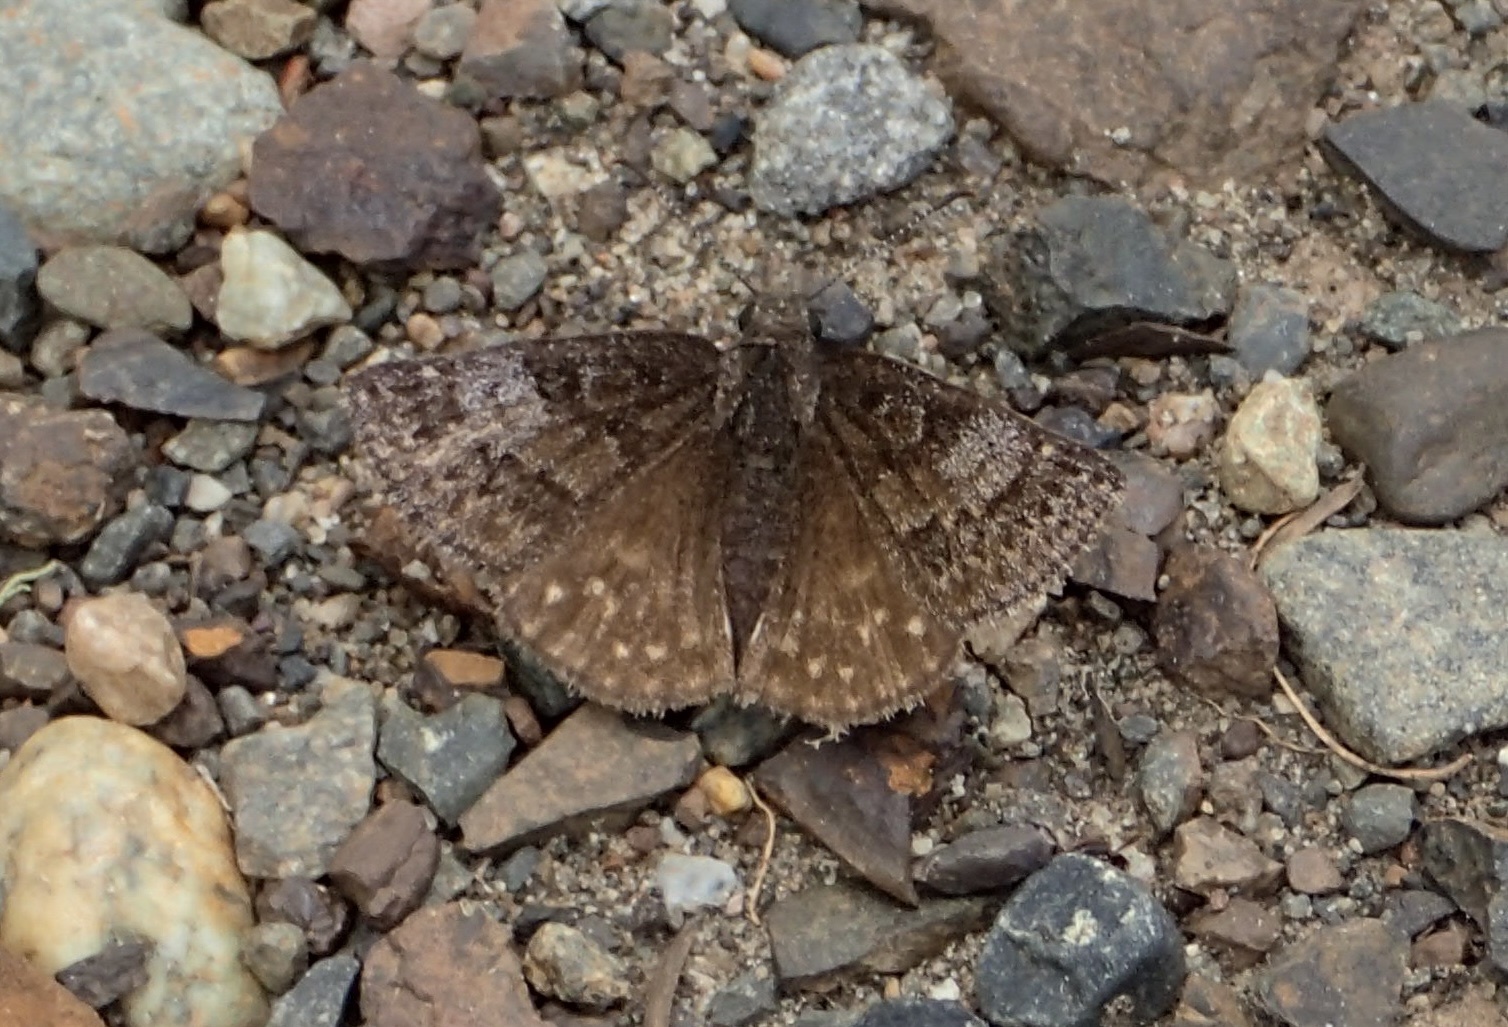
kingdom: Animalia
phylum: Arthropoda
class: Insecta
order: Lepidoptera
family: Hesperiidae
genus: Erynnis
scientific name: Erynnis icelus
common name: Dreamy duskywing
